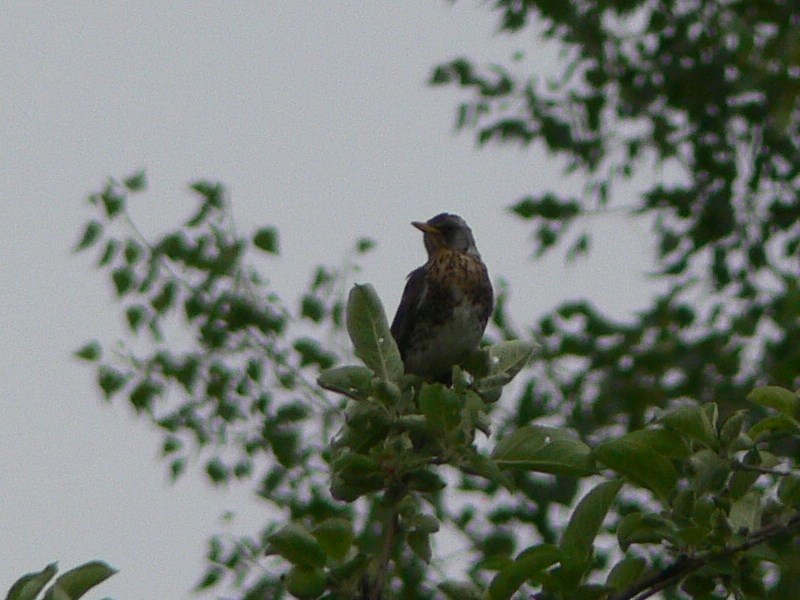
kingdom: Animalia
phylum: Chordata
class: Aves
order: Passeriformes
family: Turdidae
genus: Turdus
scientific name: Turdus pilaris
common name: Fieldfare
